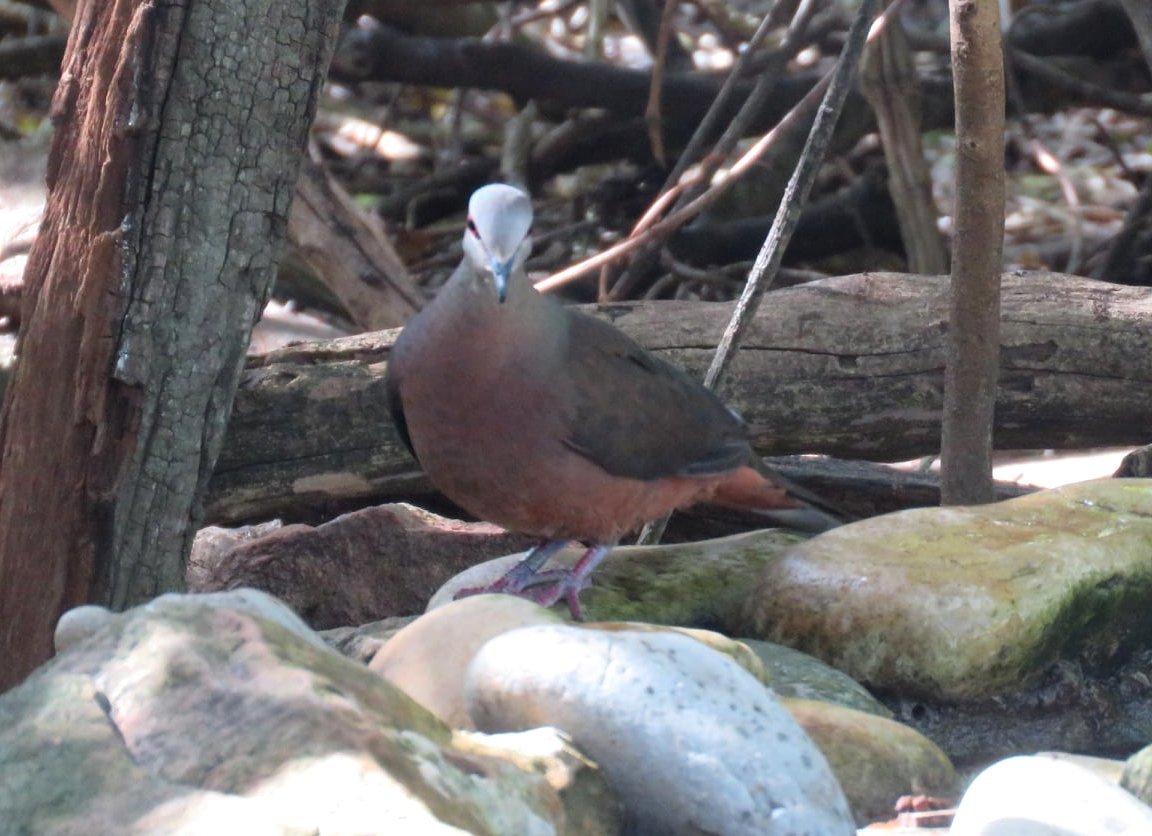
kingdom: Animalia
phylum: Chordata
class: Aves
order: Columbiformes
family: Columbidae
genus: Columba
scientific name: Columba larvata
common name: Lemon dove
